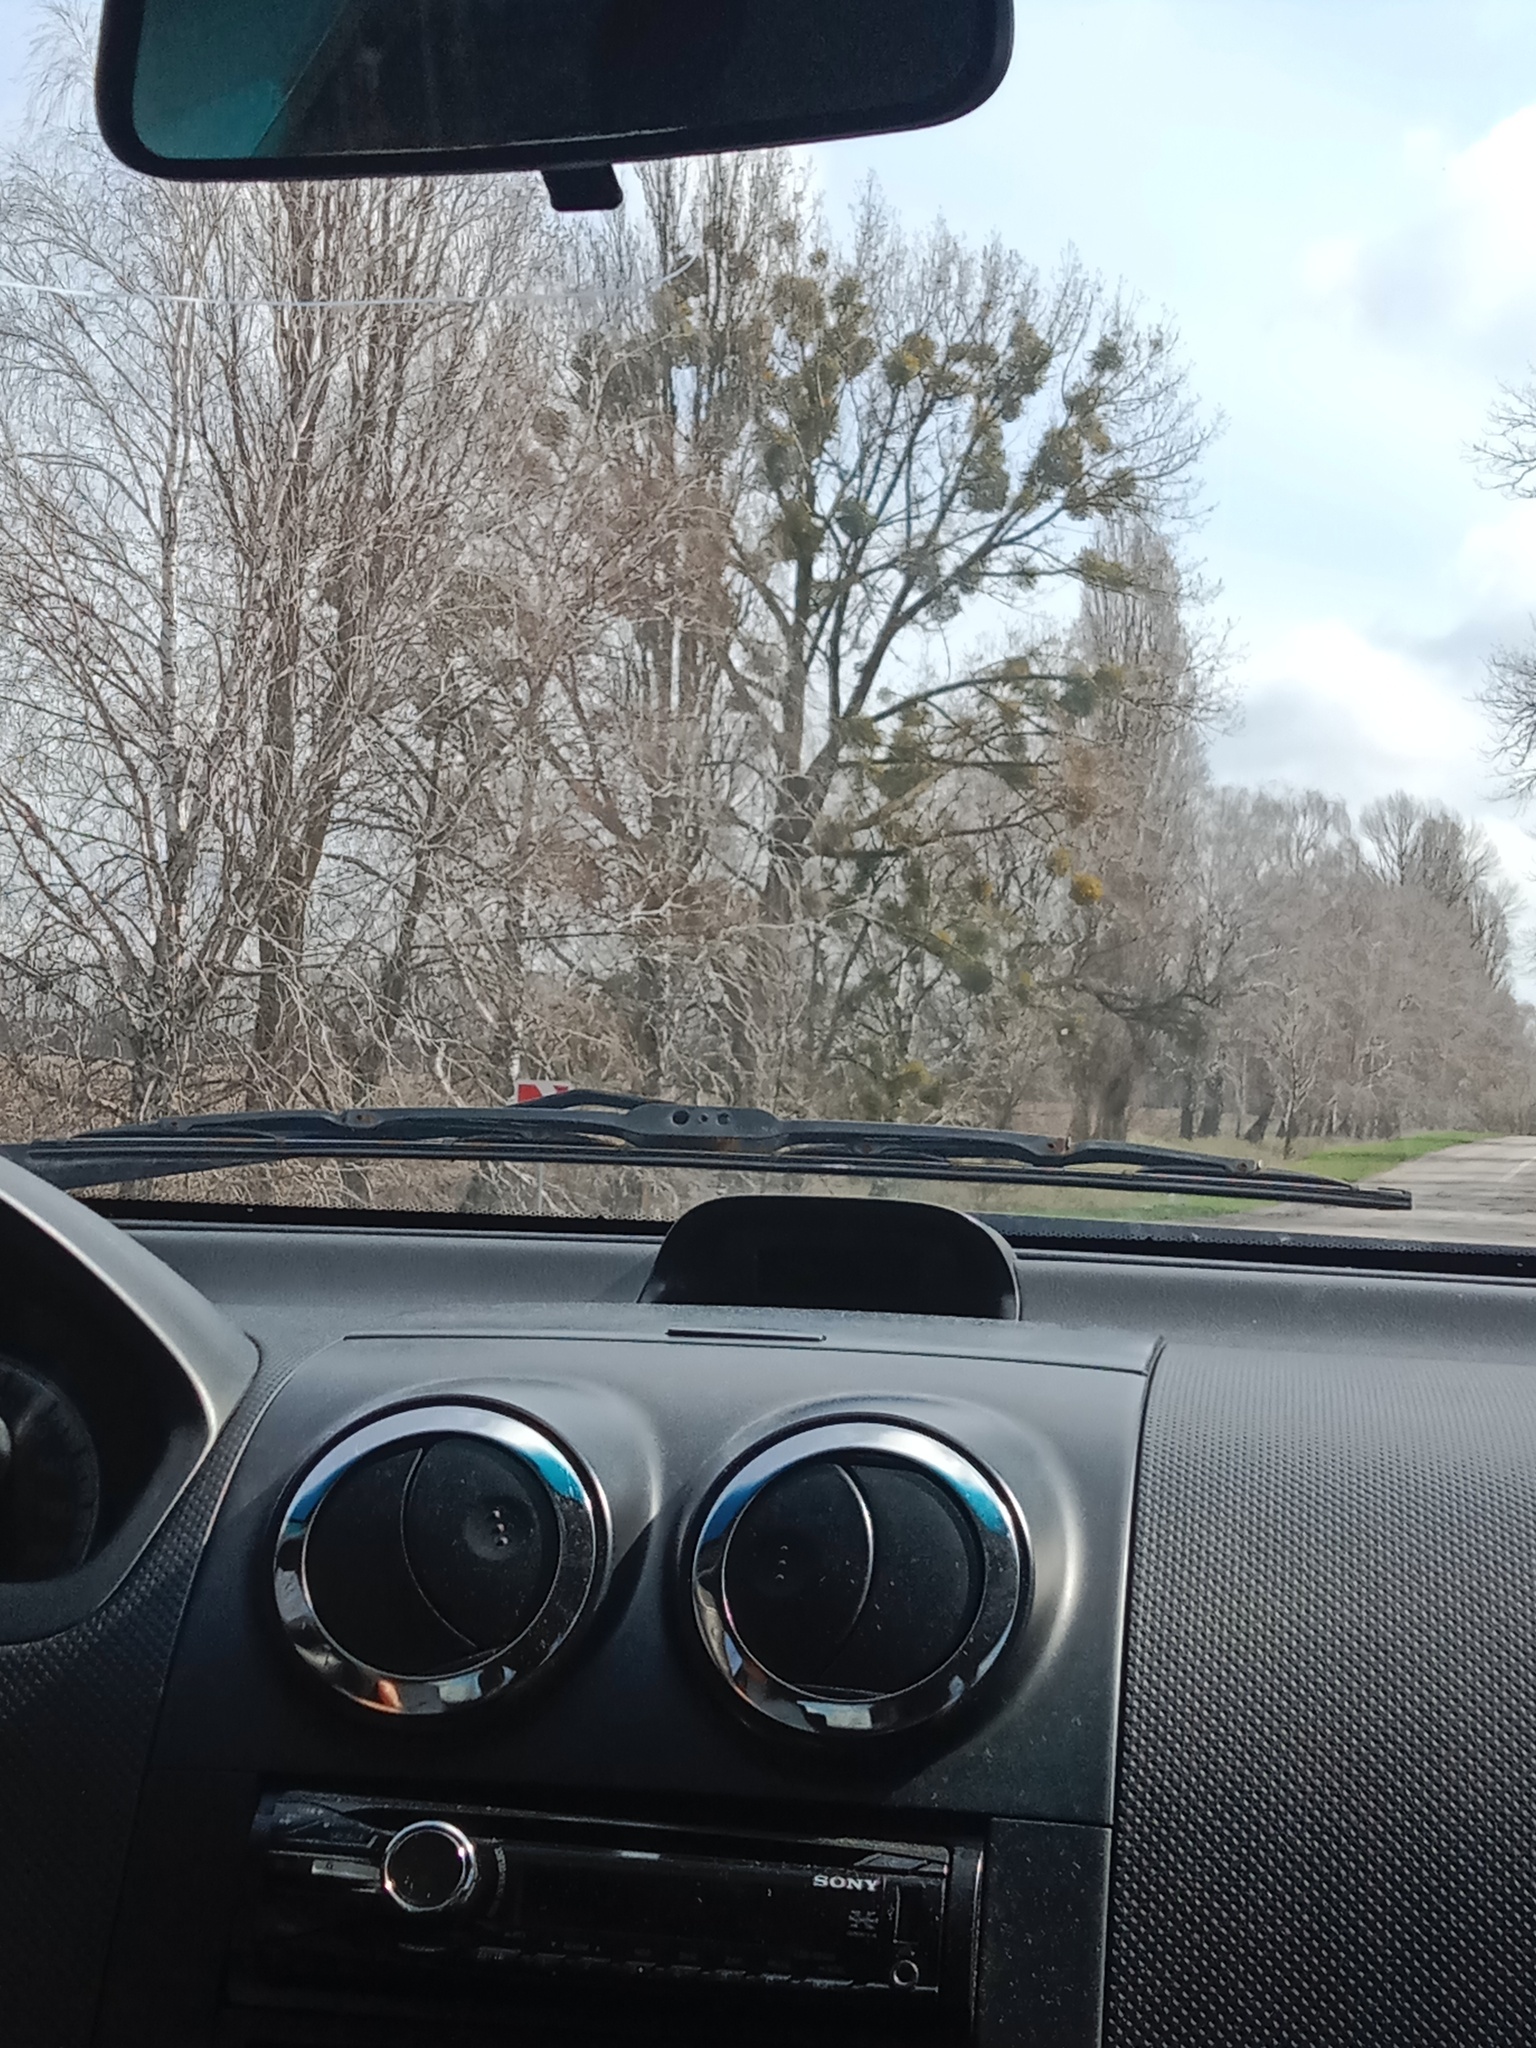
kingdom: Plantae
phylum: Tracheophyta
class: Magnoliopsida
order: Santalales
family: Viscaceae
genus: Viscum
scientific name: Viscum album
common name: Mistletoe
